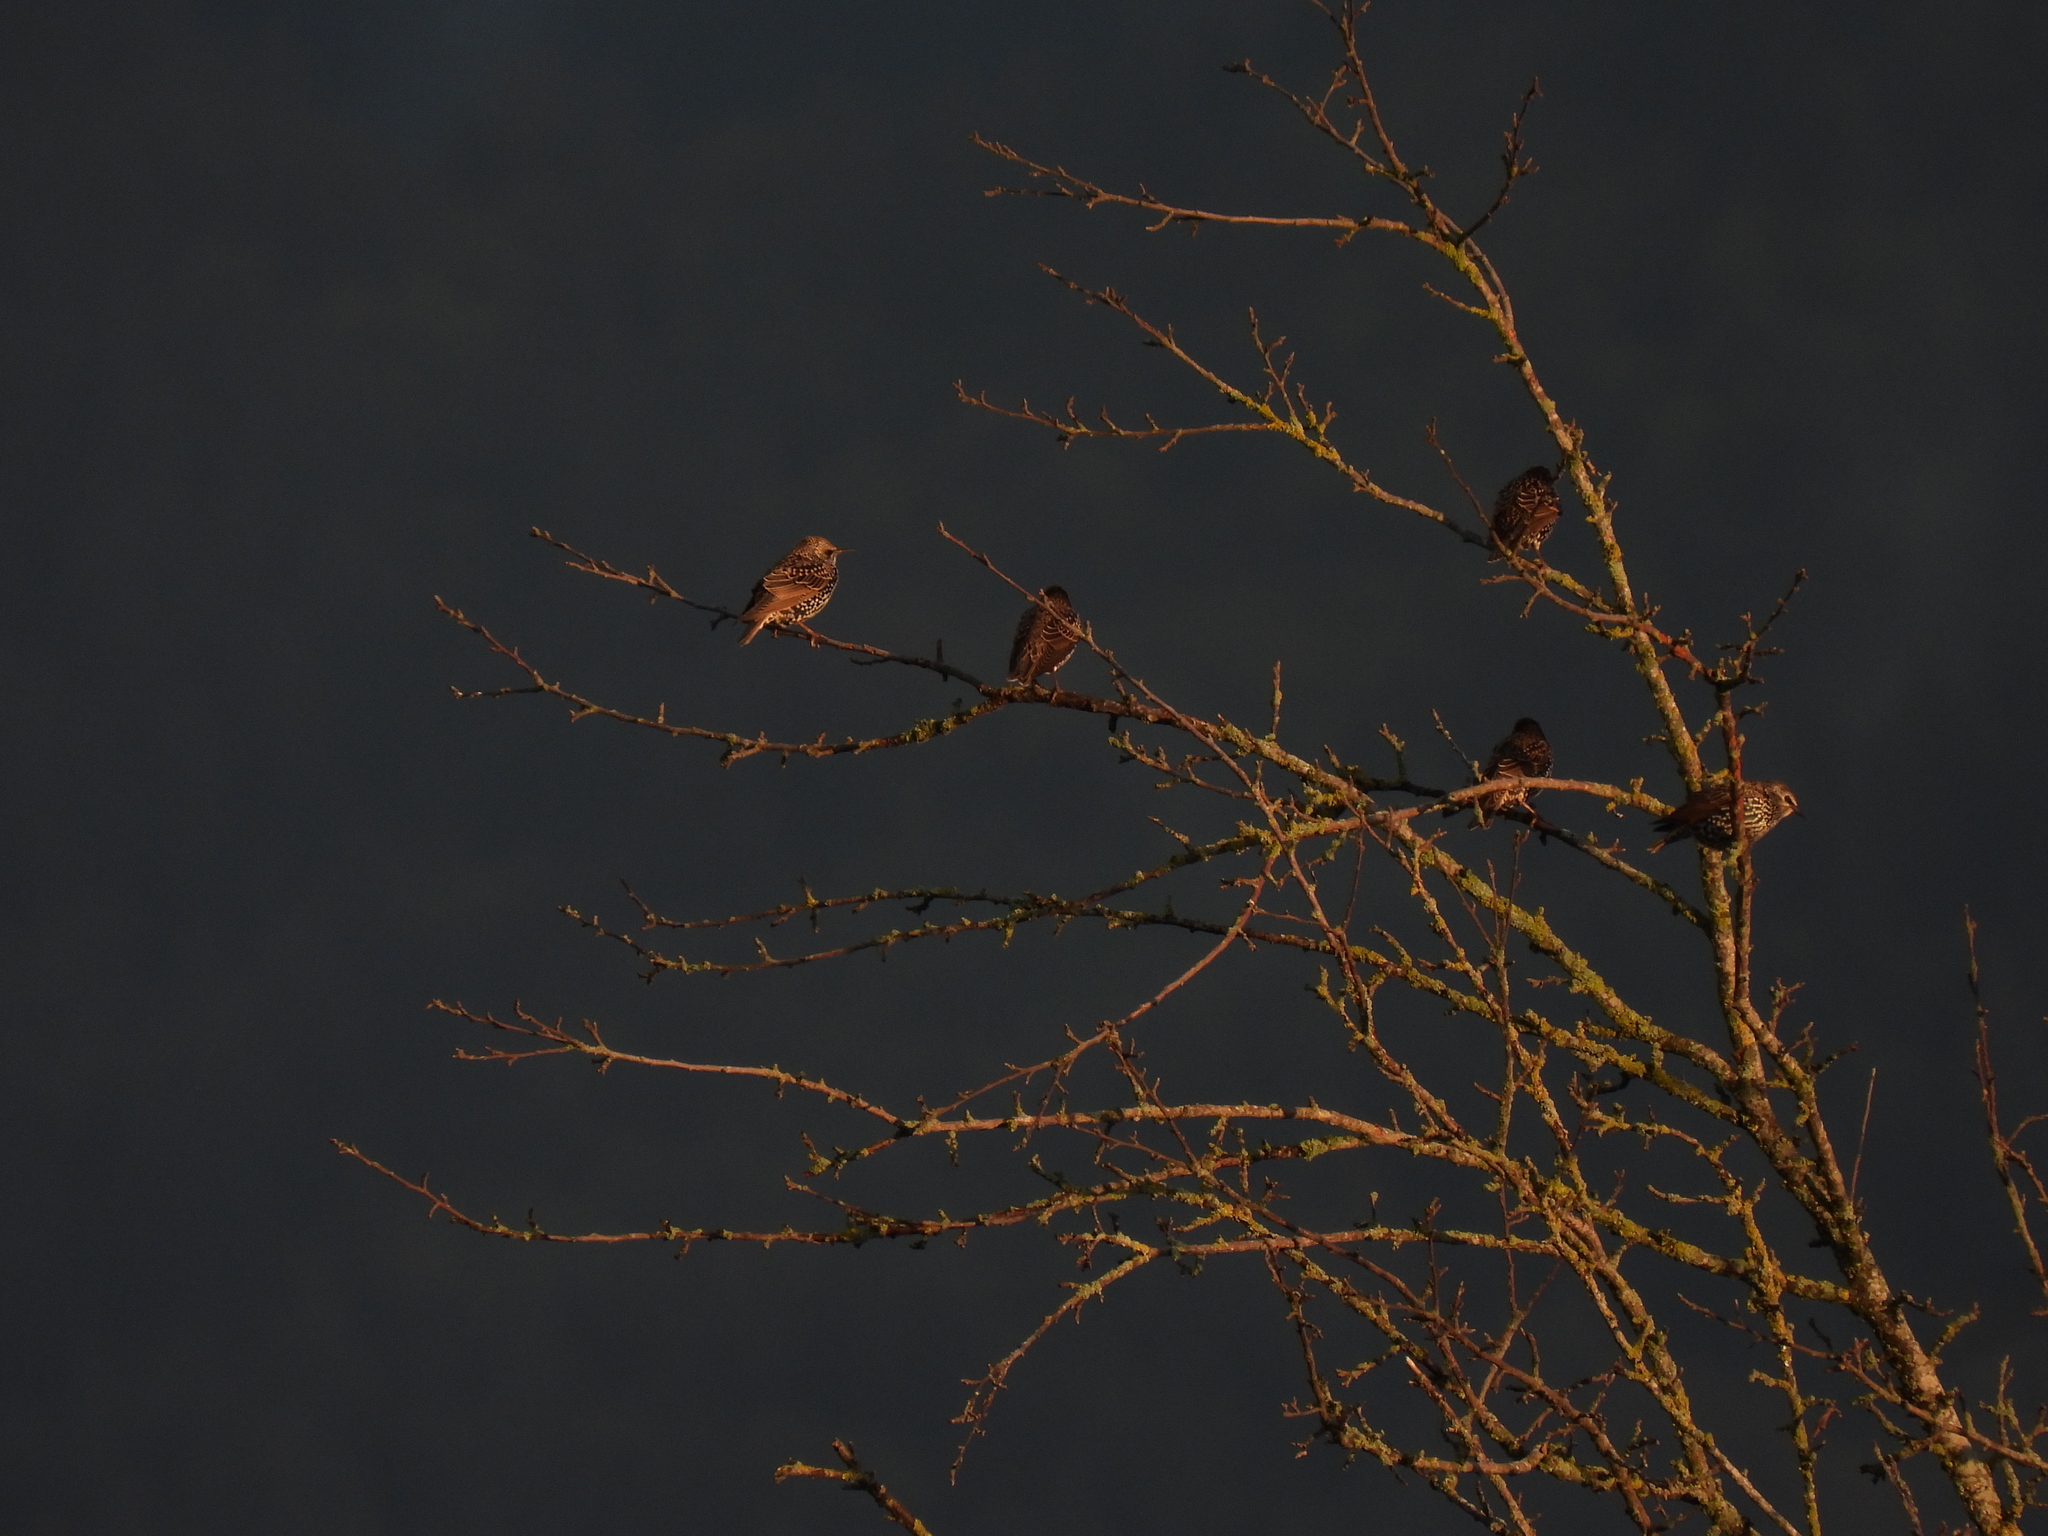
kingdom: Animalia
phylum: Chordata
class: Aves
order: Passeriformes
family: Sturnidae
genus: Sturnus
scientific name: Sturnus vulgaris
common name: Common starling
